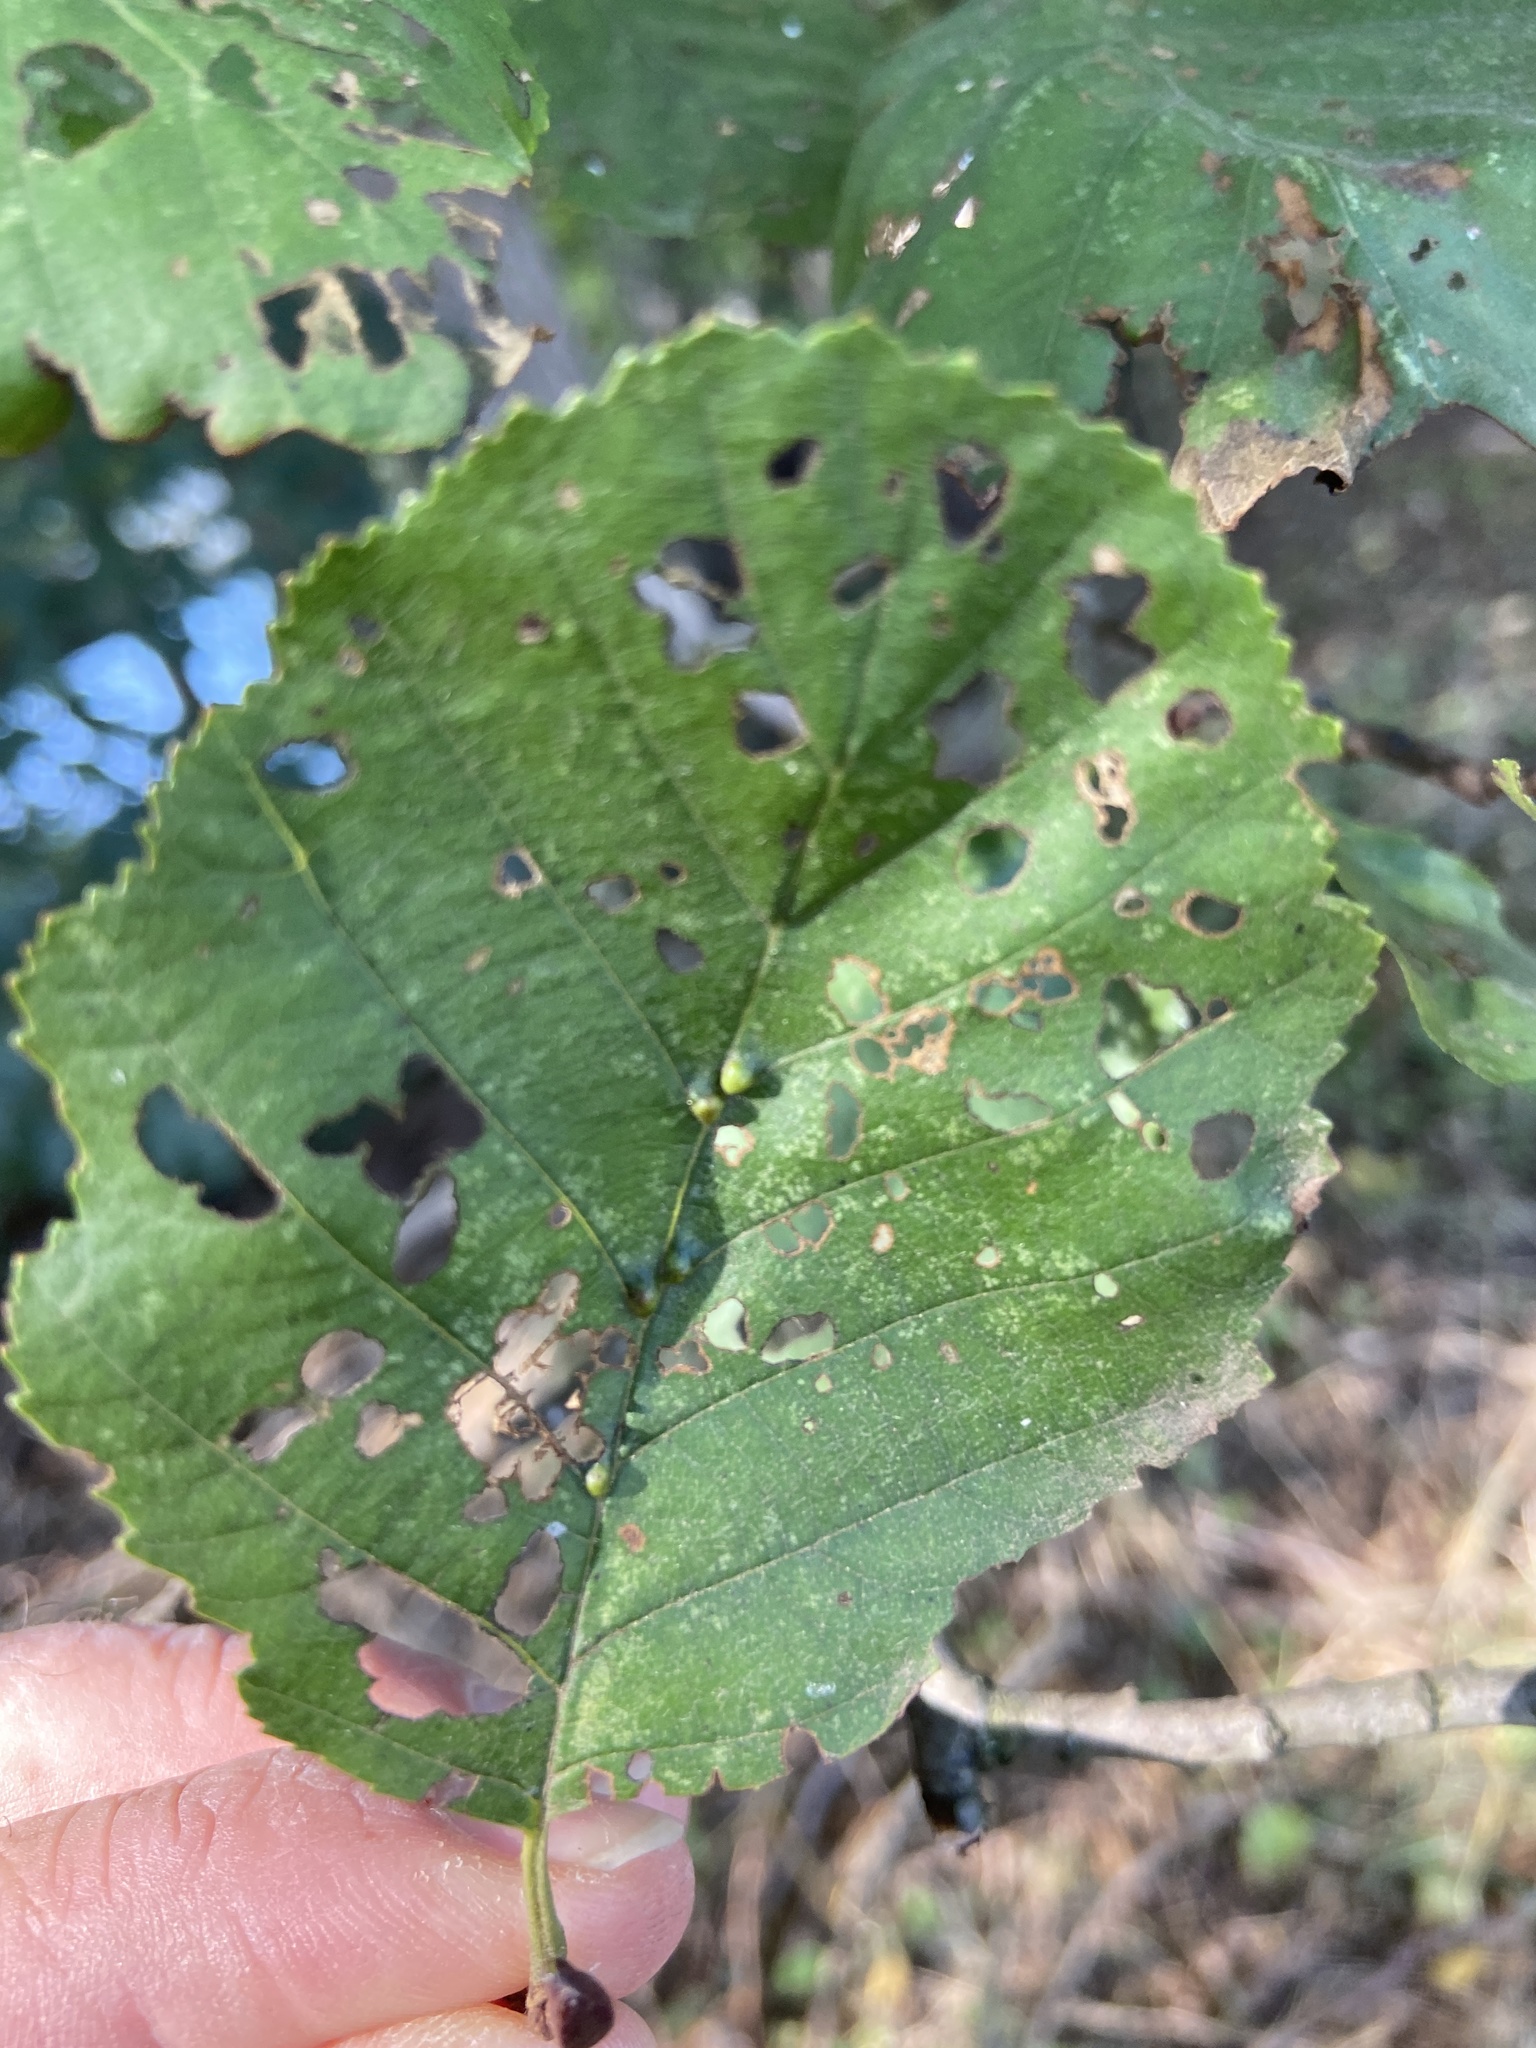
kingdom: Animalia
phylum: Arthropoda
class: Arachnida
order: Trombidiformes
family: Eriophyidae
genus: Aceria
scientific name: Aceria nalepai
